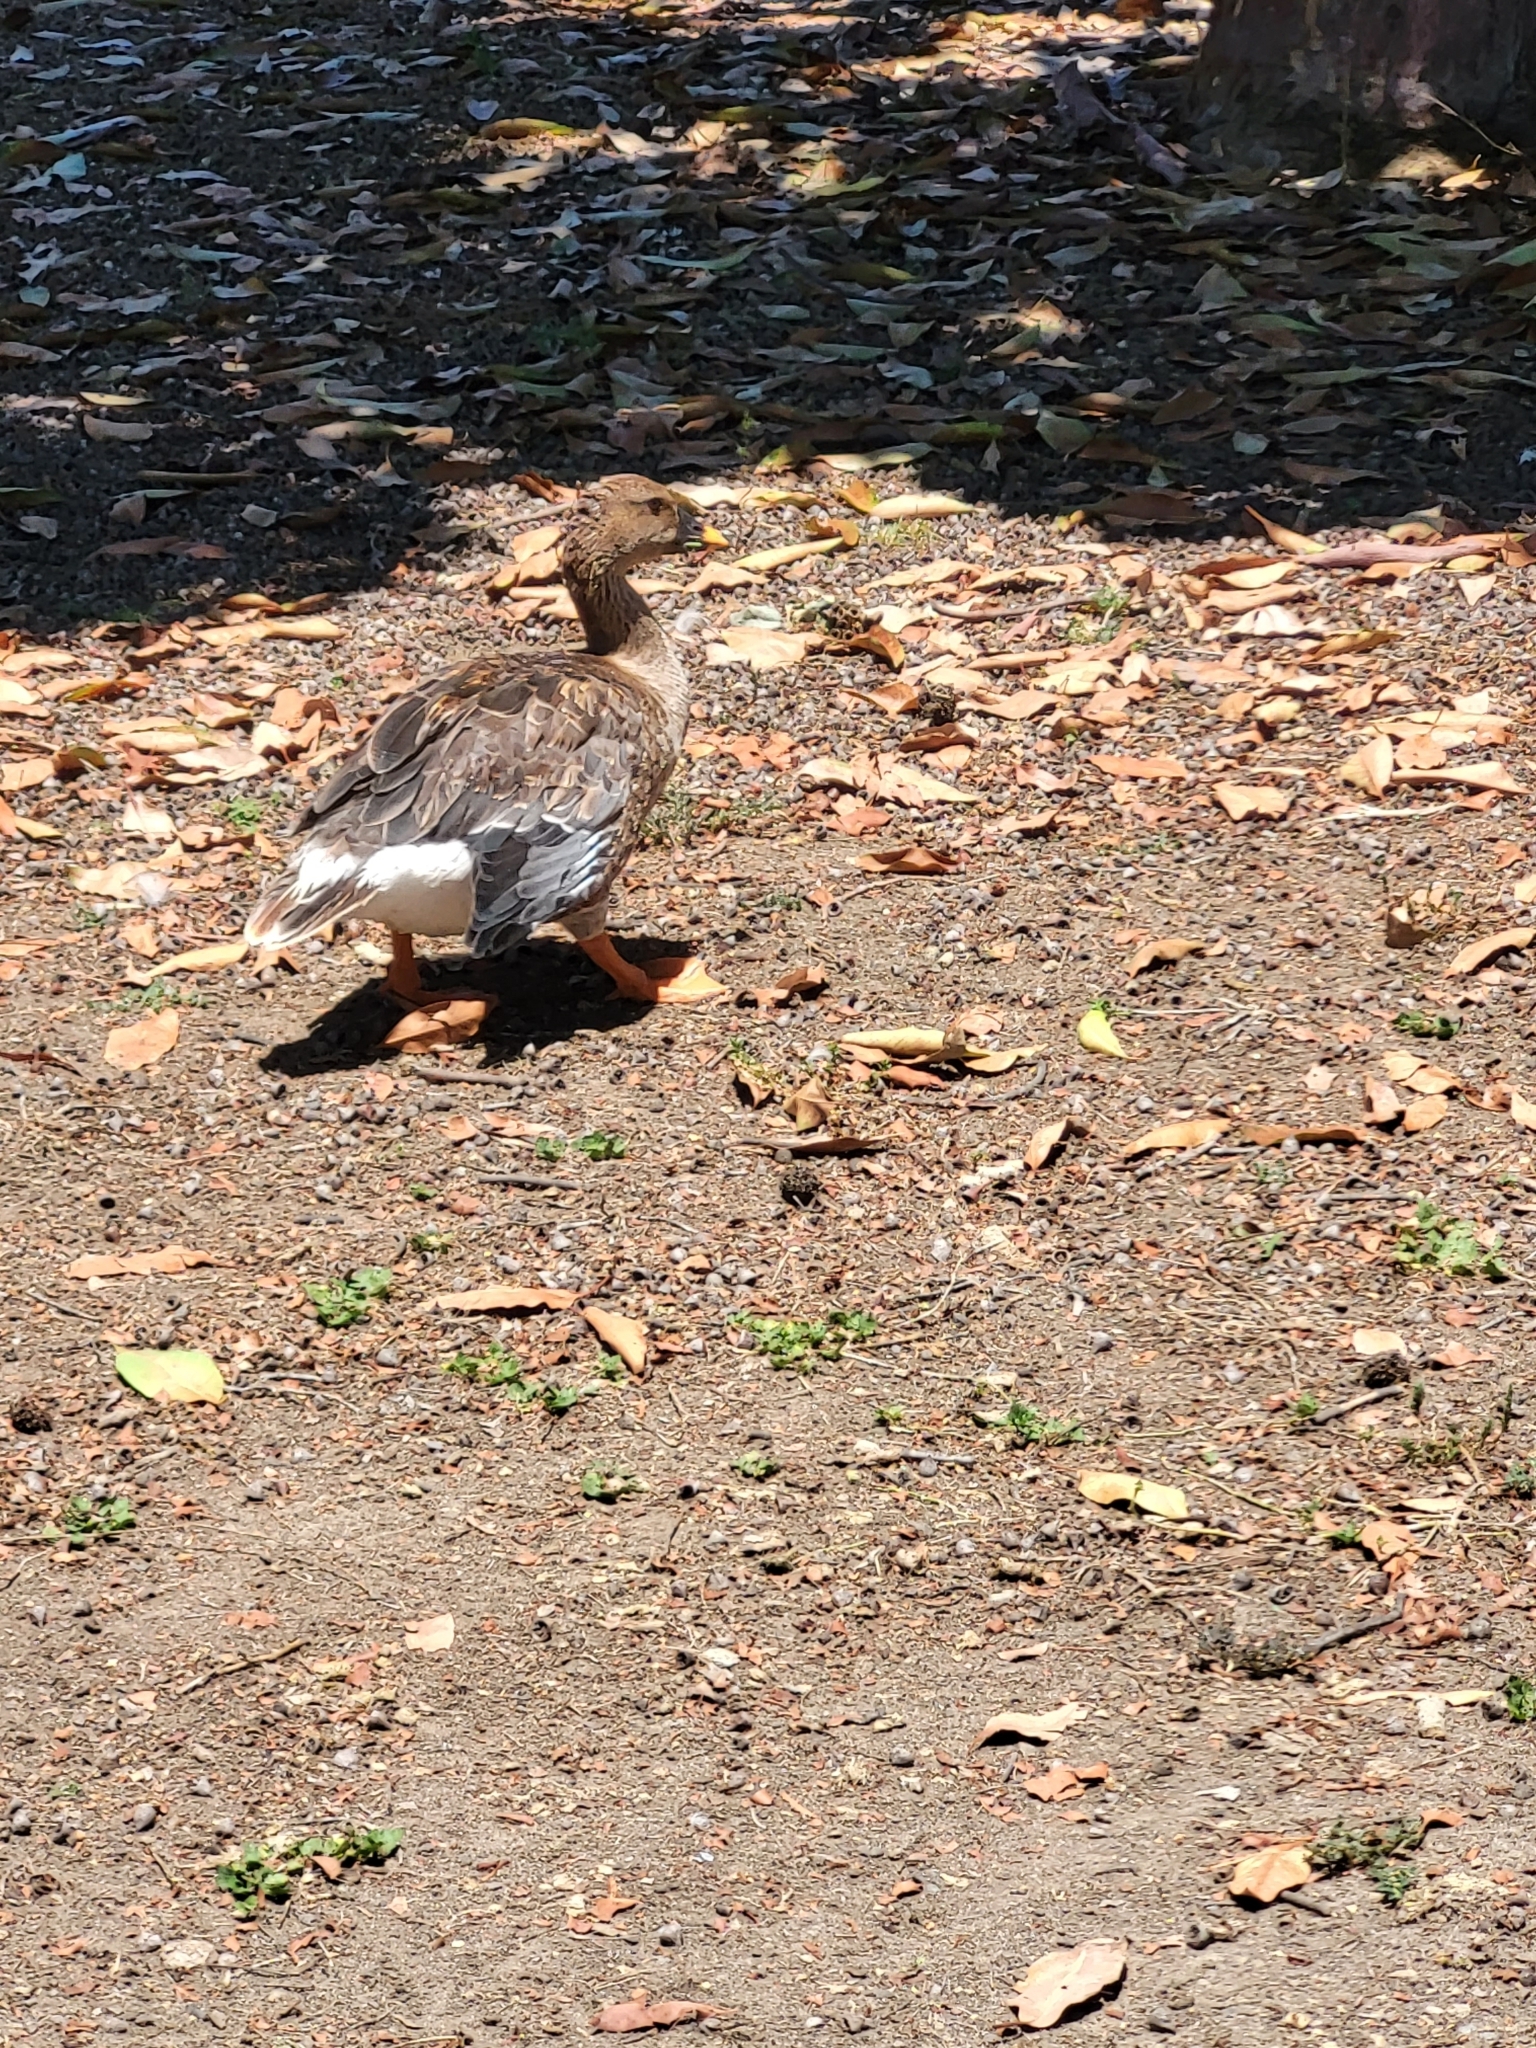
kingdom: Animalia
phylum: Chordata
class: Aves
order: Anseriformes
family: Anatidae
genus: Anser
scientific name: Anser serrirostris
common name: Tundra bean goose
